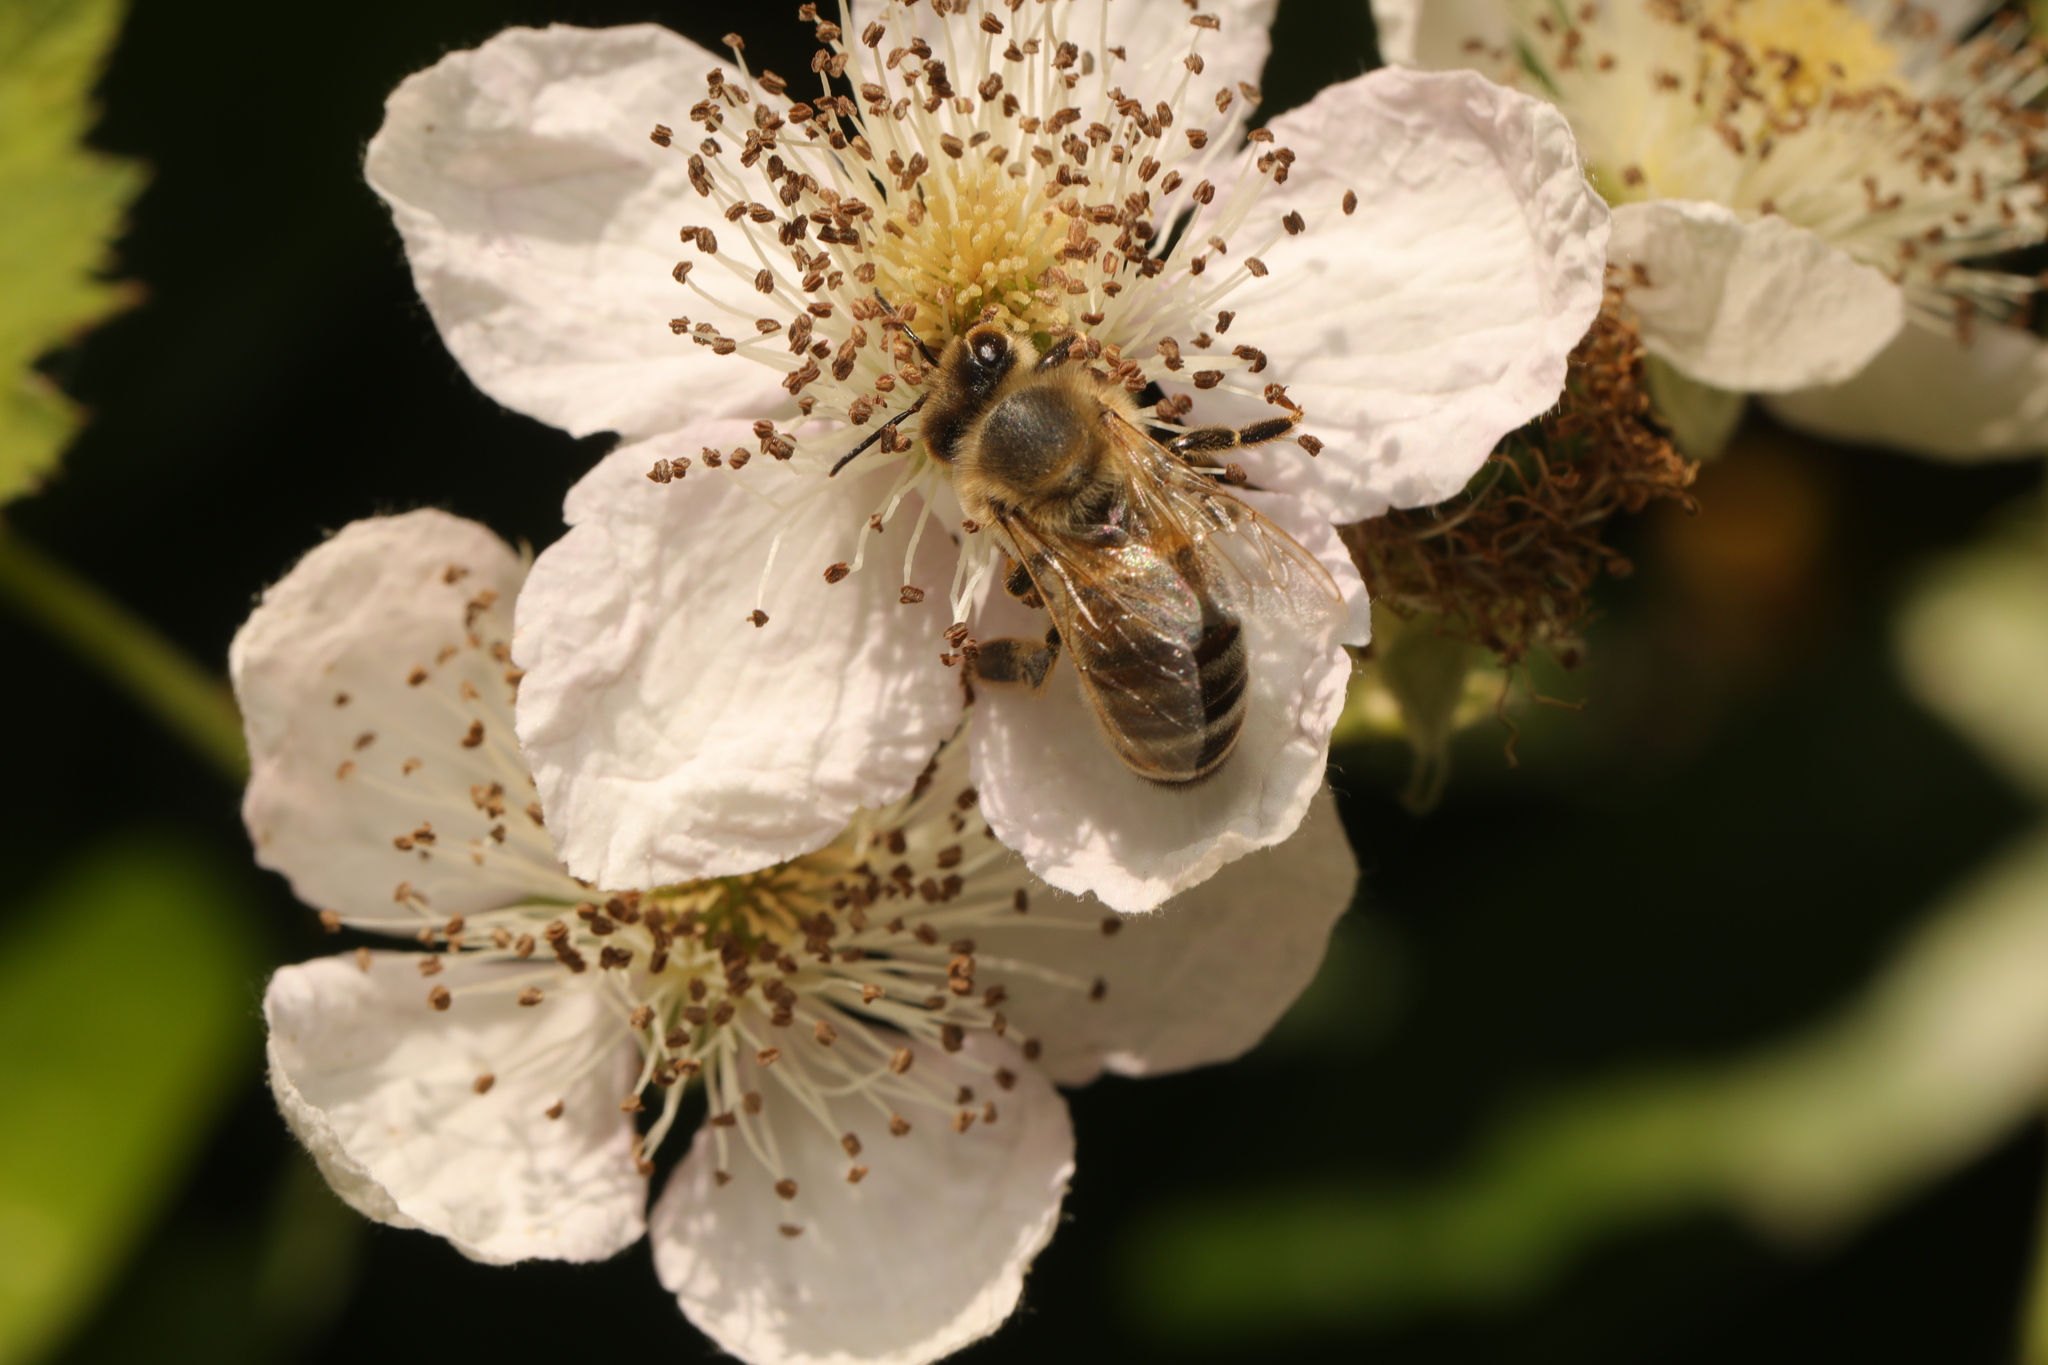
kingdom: Animalia
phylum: Arthropoda
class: Insecta
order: Hymenoptera
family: Apidae
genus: Apis
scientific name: Apis mellifera
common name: Honey bee
